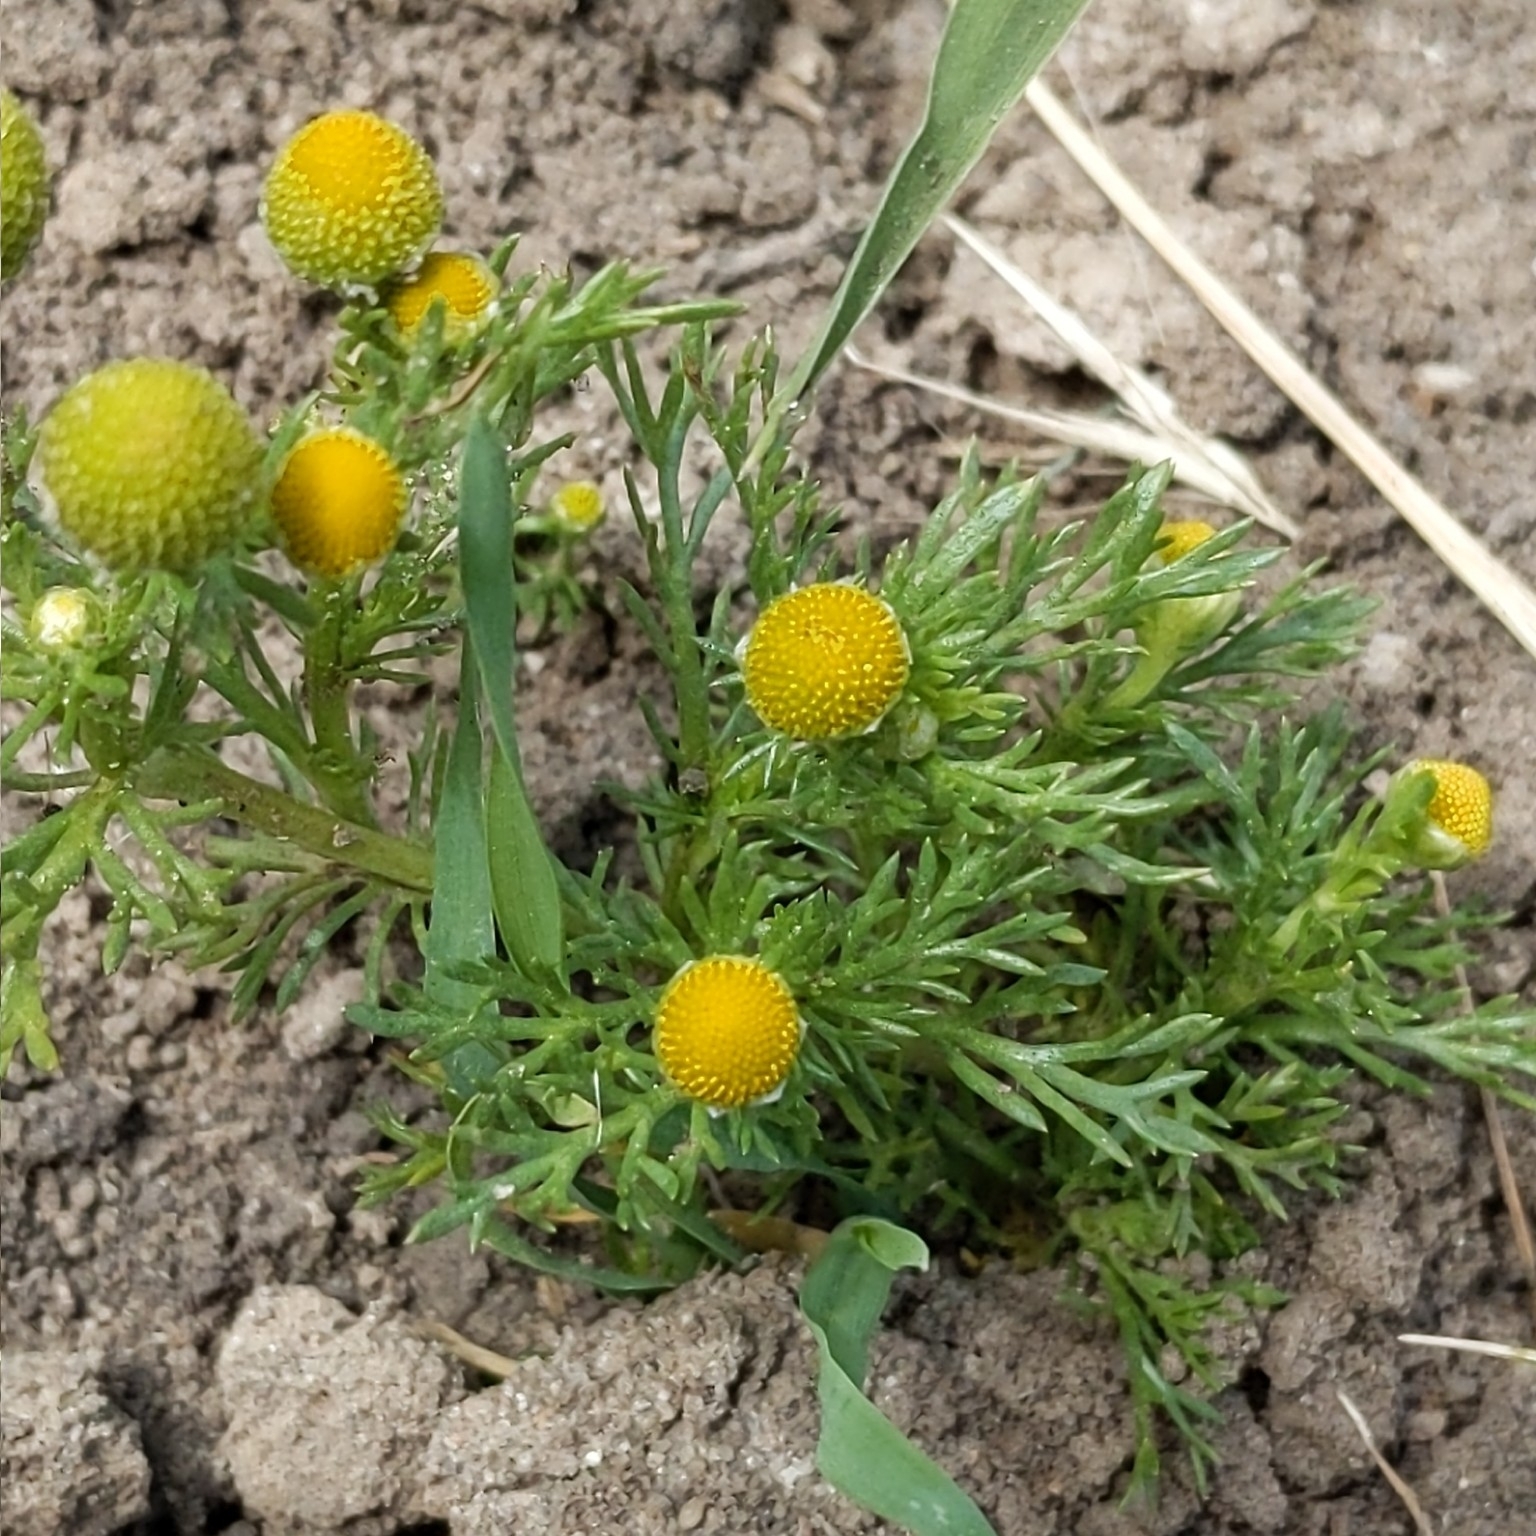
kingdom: Plantae
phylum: Tracheophyta
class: Magnoliopsida
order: Asterales
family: Asteraceae
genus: Matricaria
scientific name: Matricaria discoidea
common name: Disc mayweed
